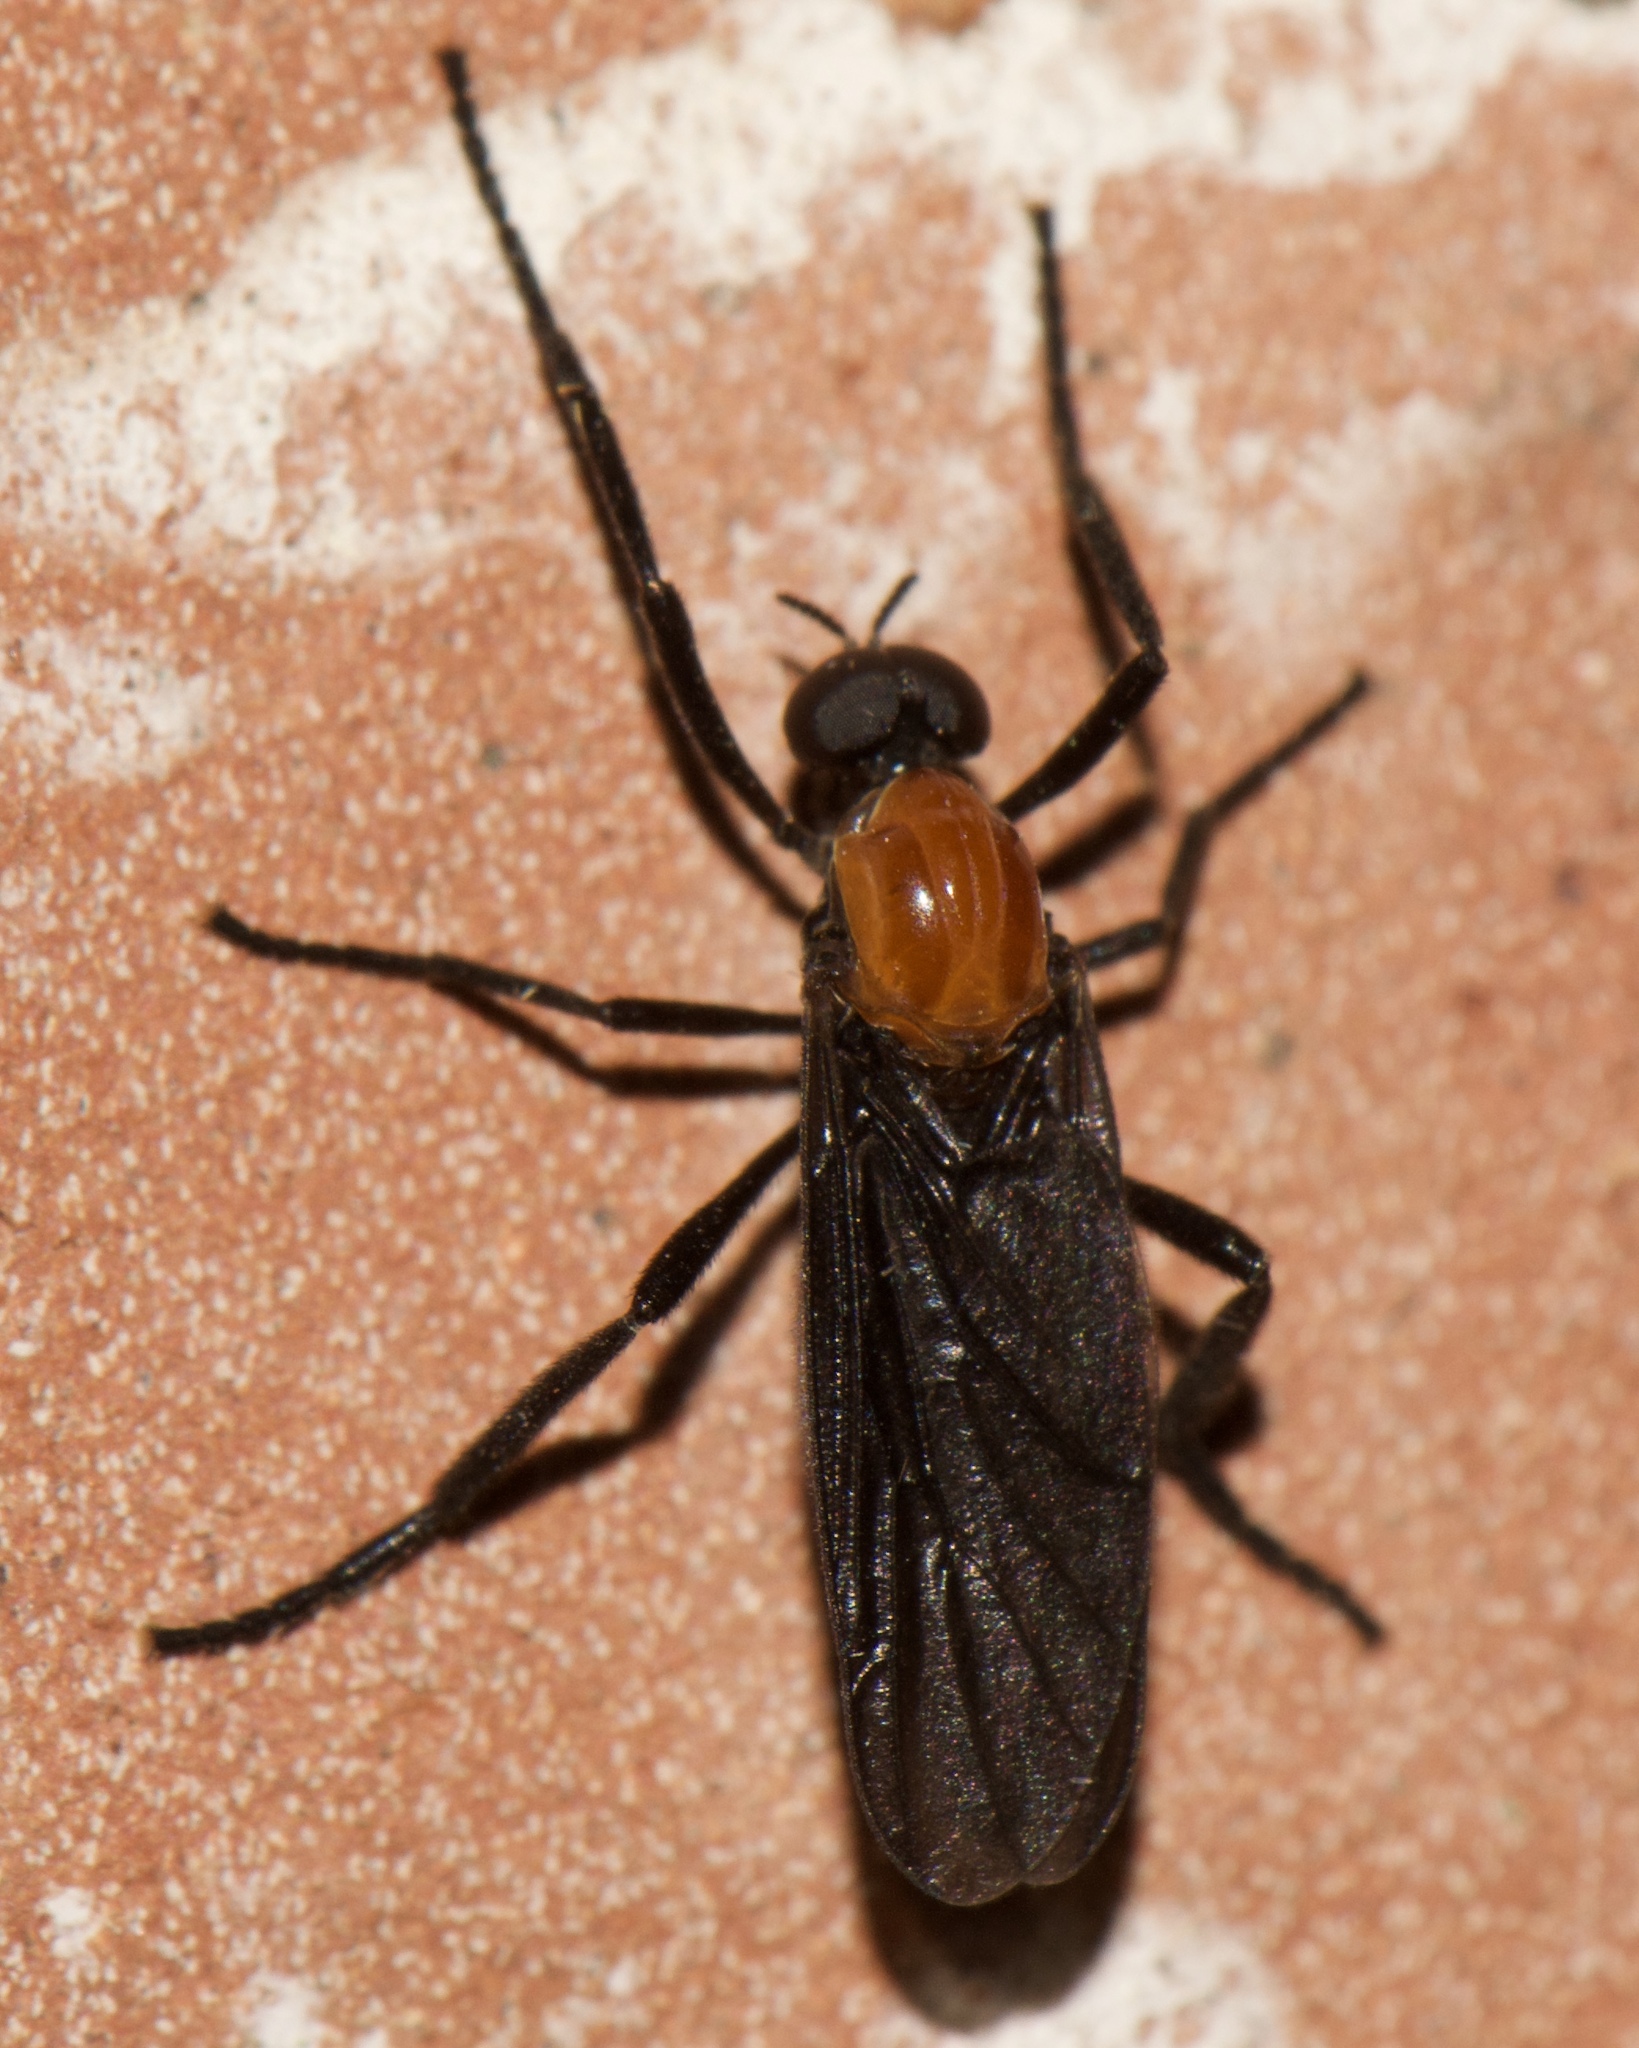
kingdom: Animalia
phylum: Arthropoda
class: Insecta
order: Diptera
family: Bibionidae
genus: Plecia
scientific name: Plecia nearctica
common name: March fly
